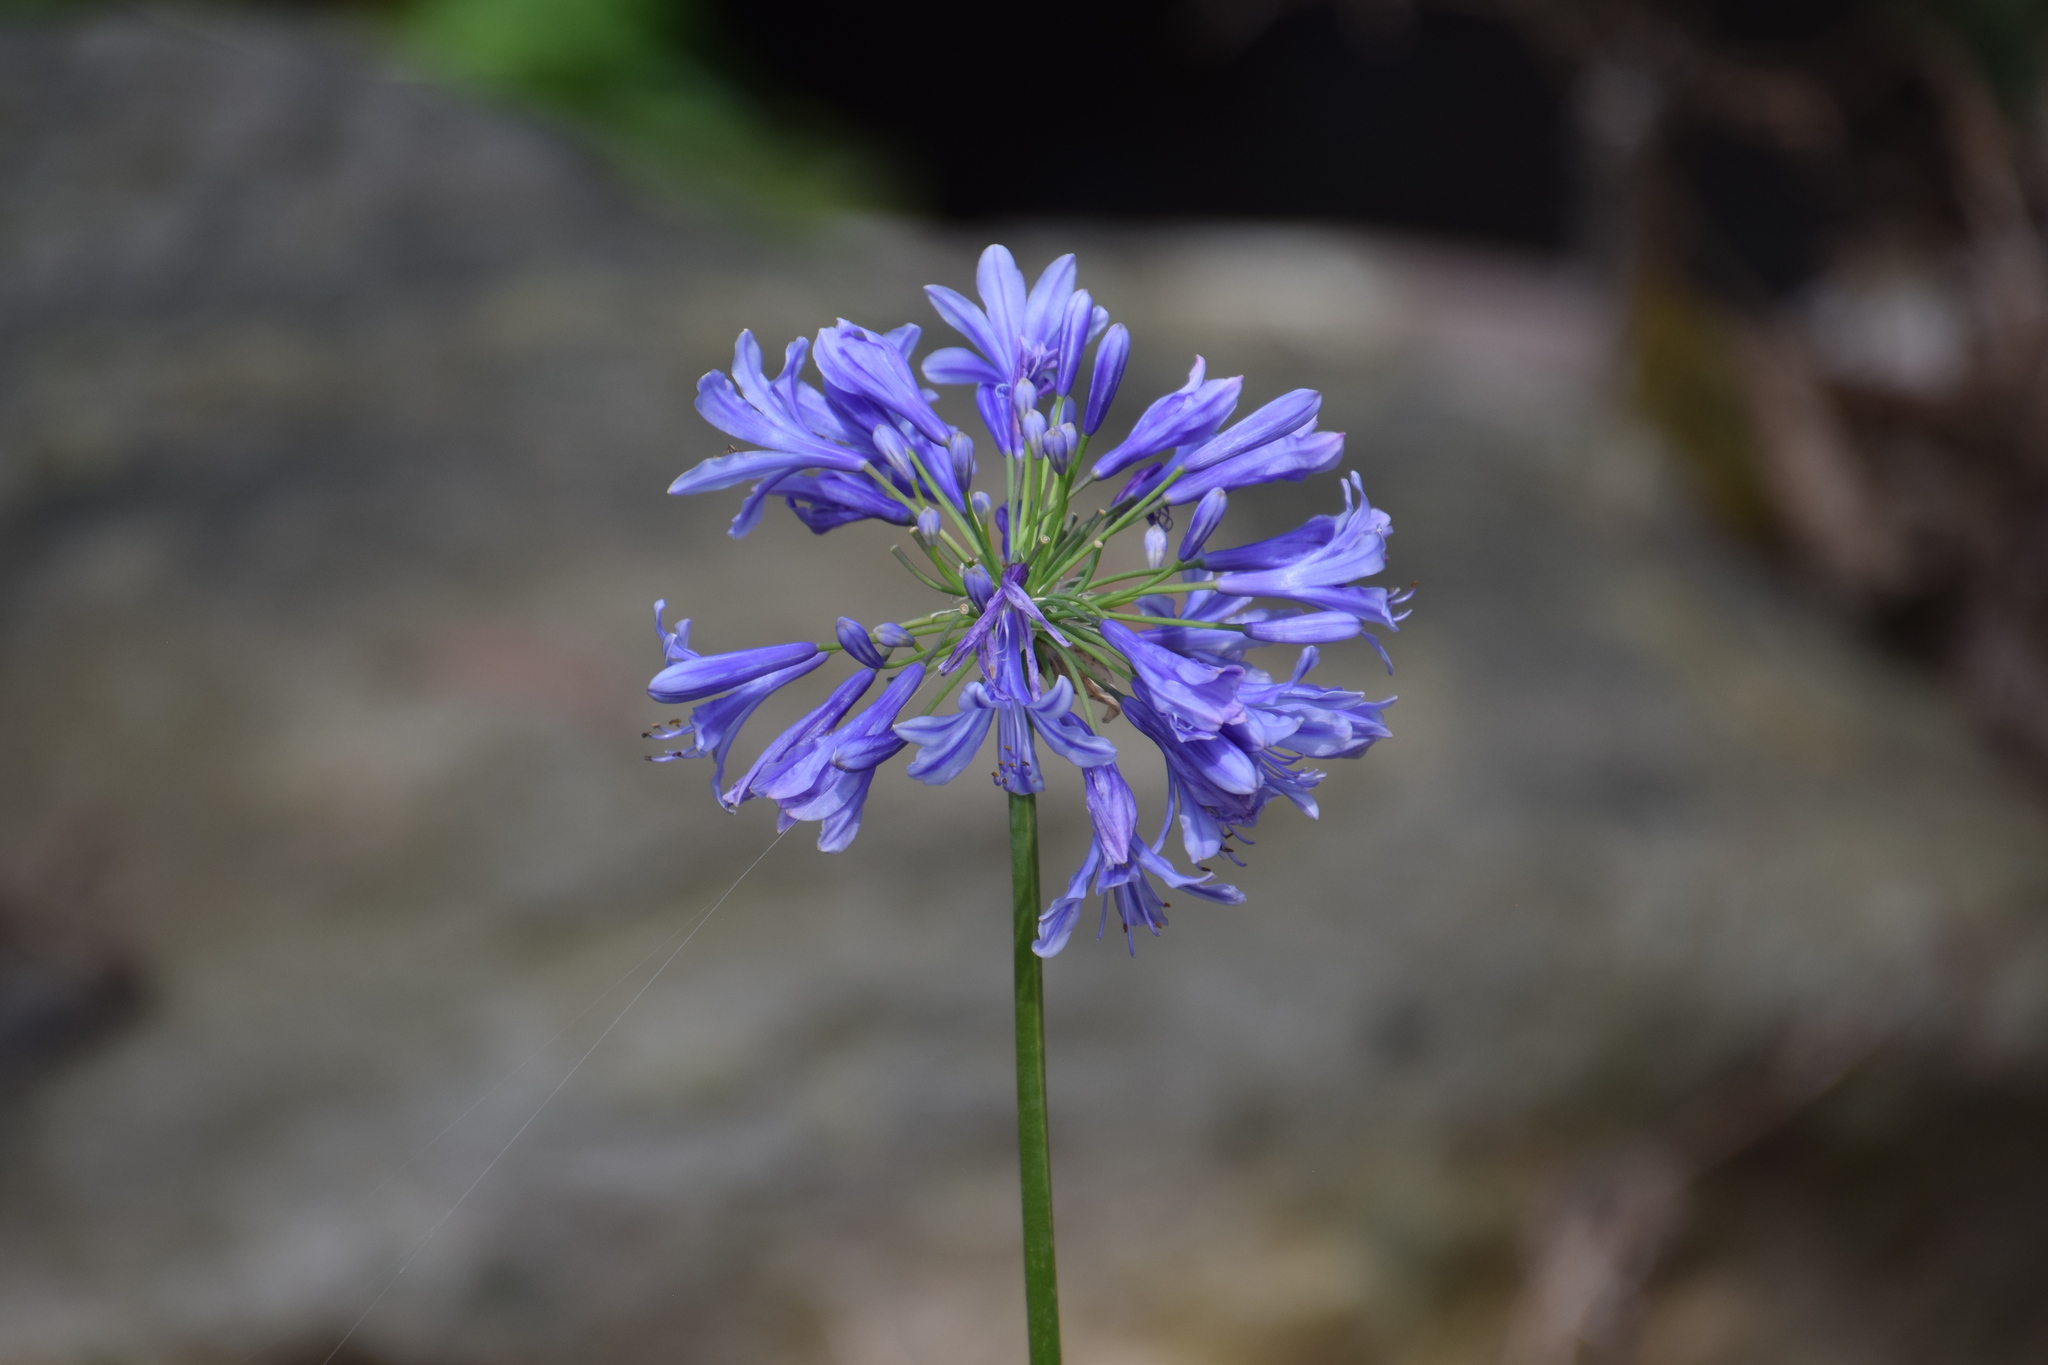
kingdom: Plantae
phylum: Tracheophyta
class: Liliopsida
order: Asparagales
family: Amaryllidaceae
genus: Agapanthus
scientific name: Agapanthus praecox
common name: African-lily
